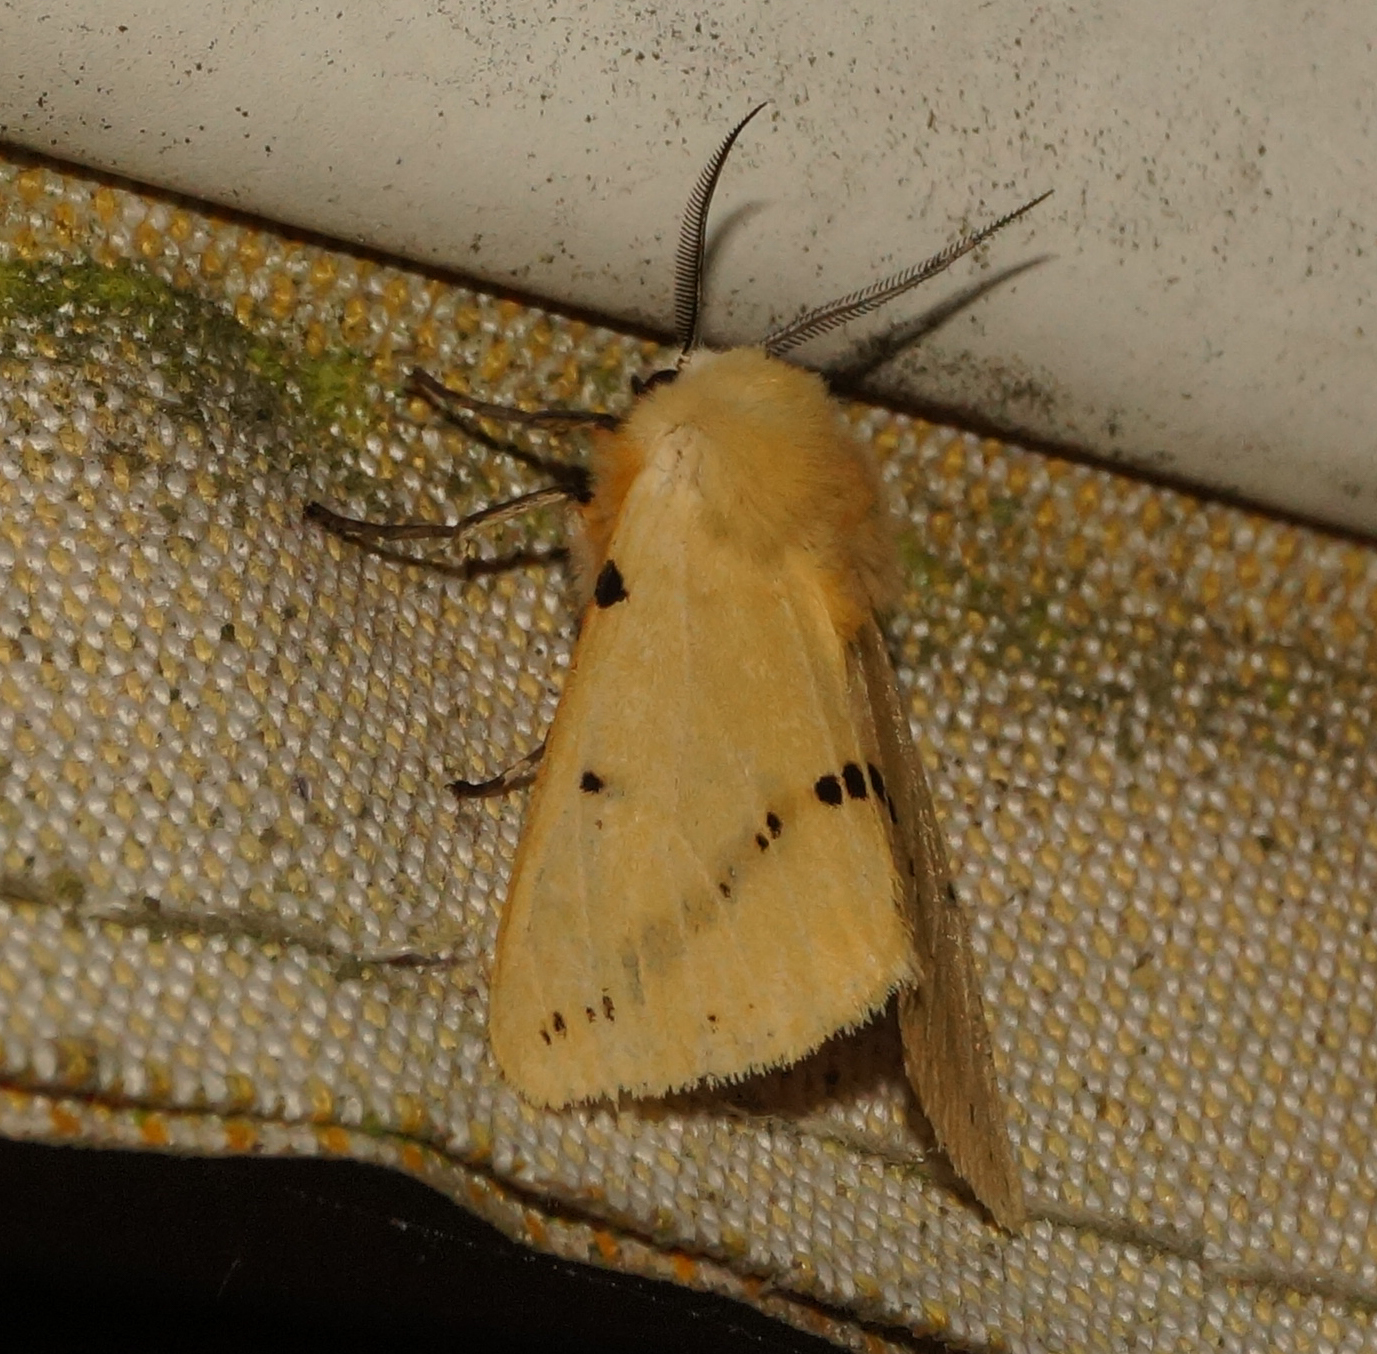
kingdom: Animalia
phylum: Arthropoda
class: Insecta
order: Lepidoptera
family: Erebidae
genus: Spilarctia
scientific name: Spilarctia lutea
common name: Buff ermine
